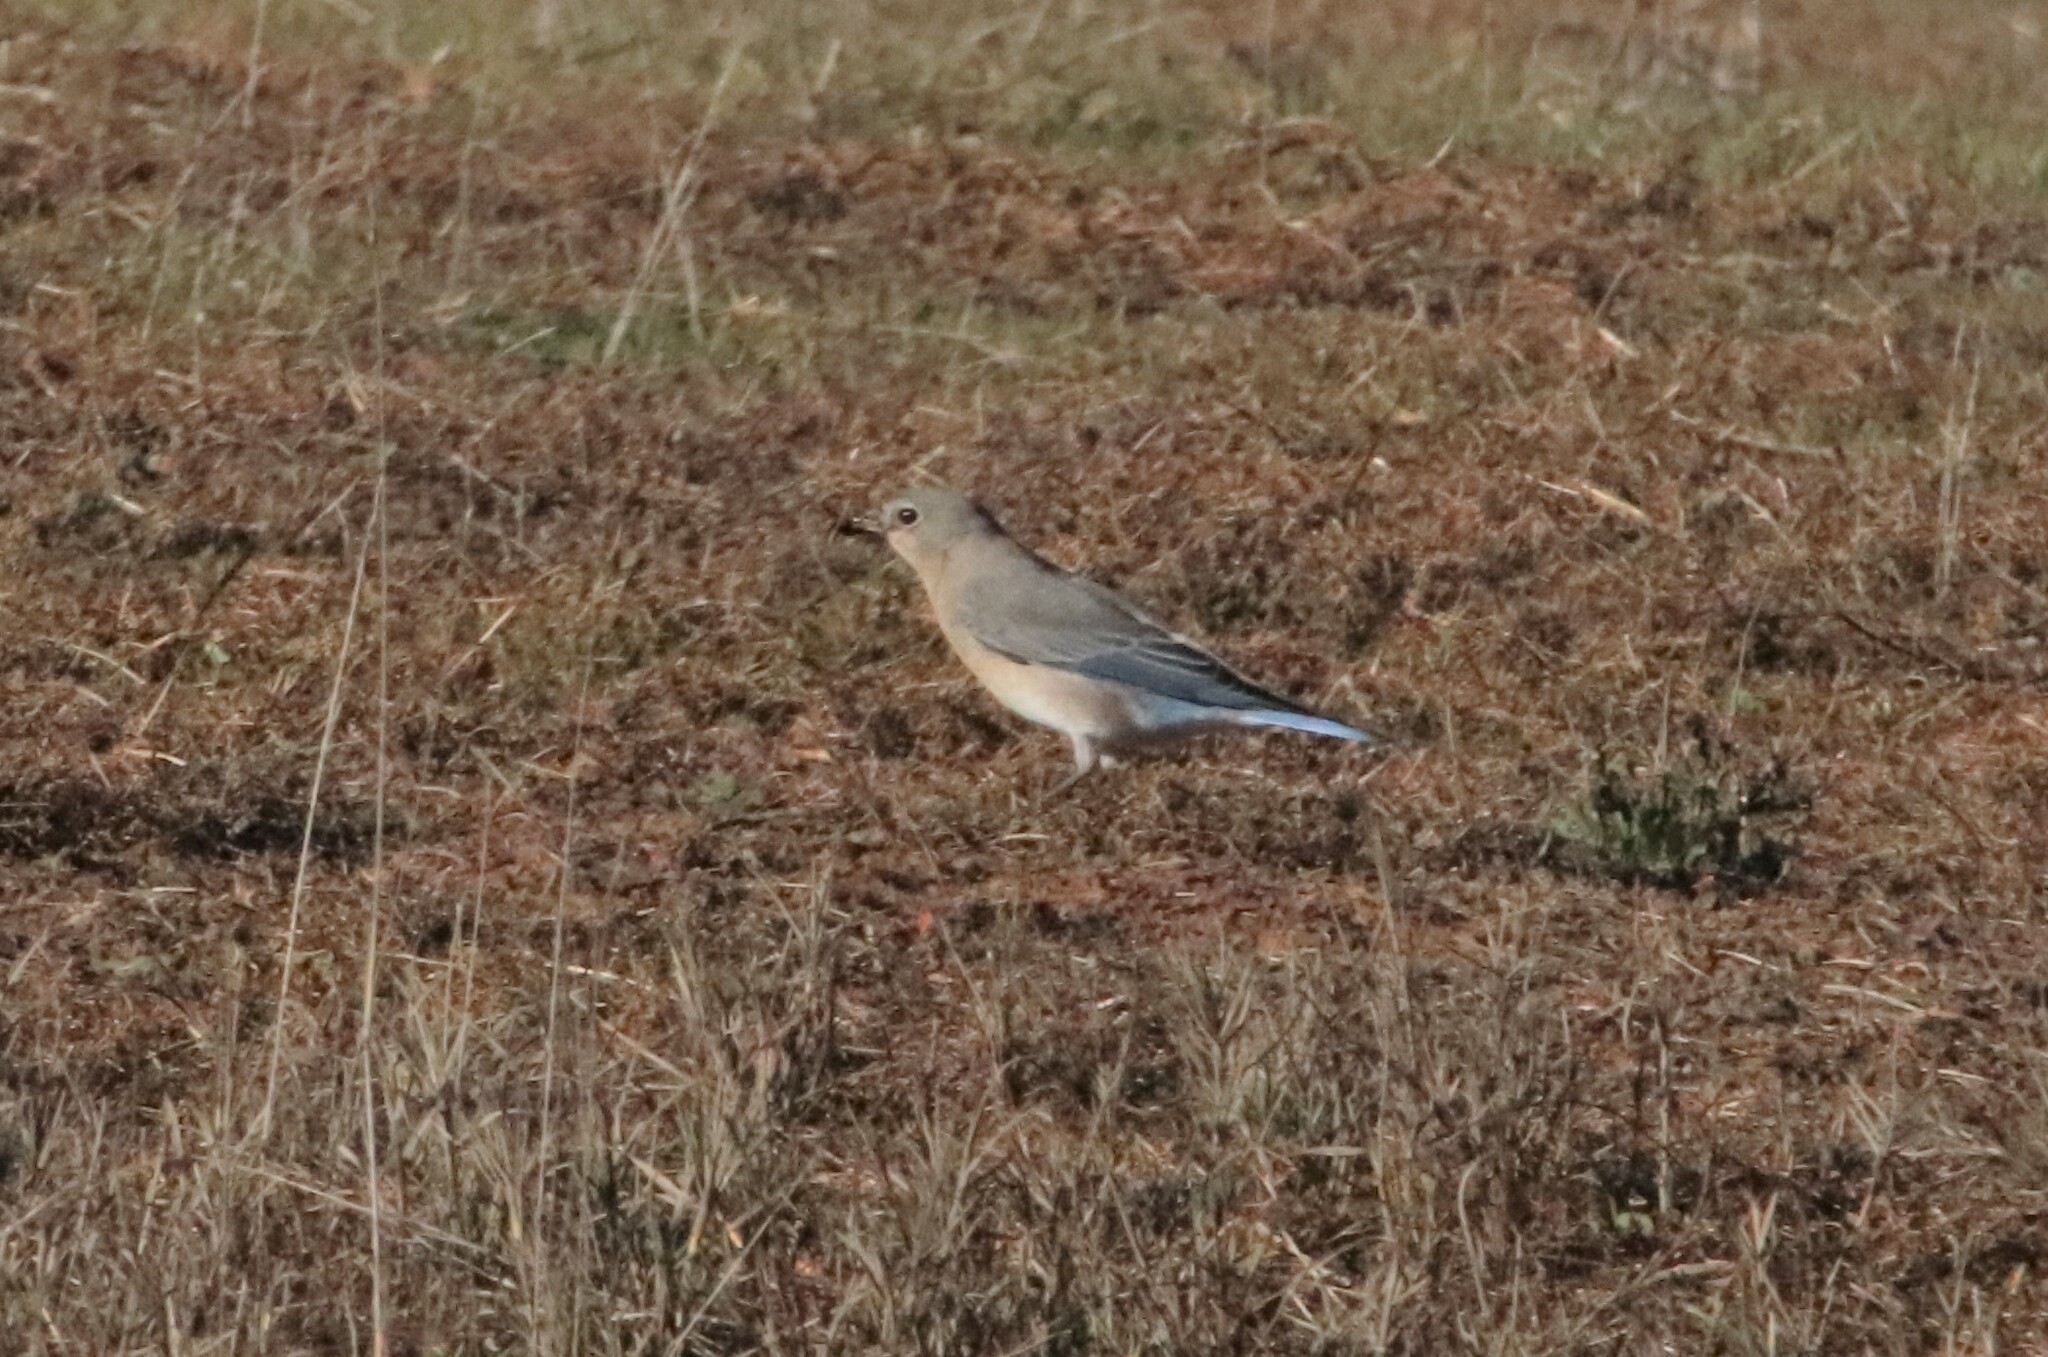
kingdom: Animalia
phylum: Chordata
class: Aves
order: Passeriformes
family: Turdidae
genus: Sialia
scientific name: Sialia currucoides
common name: Mountain bluebird
